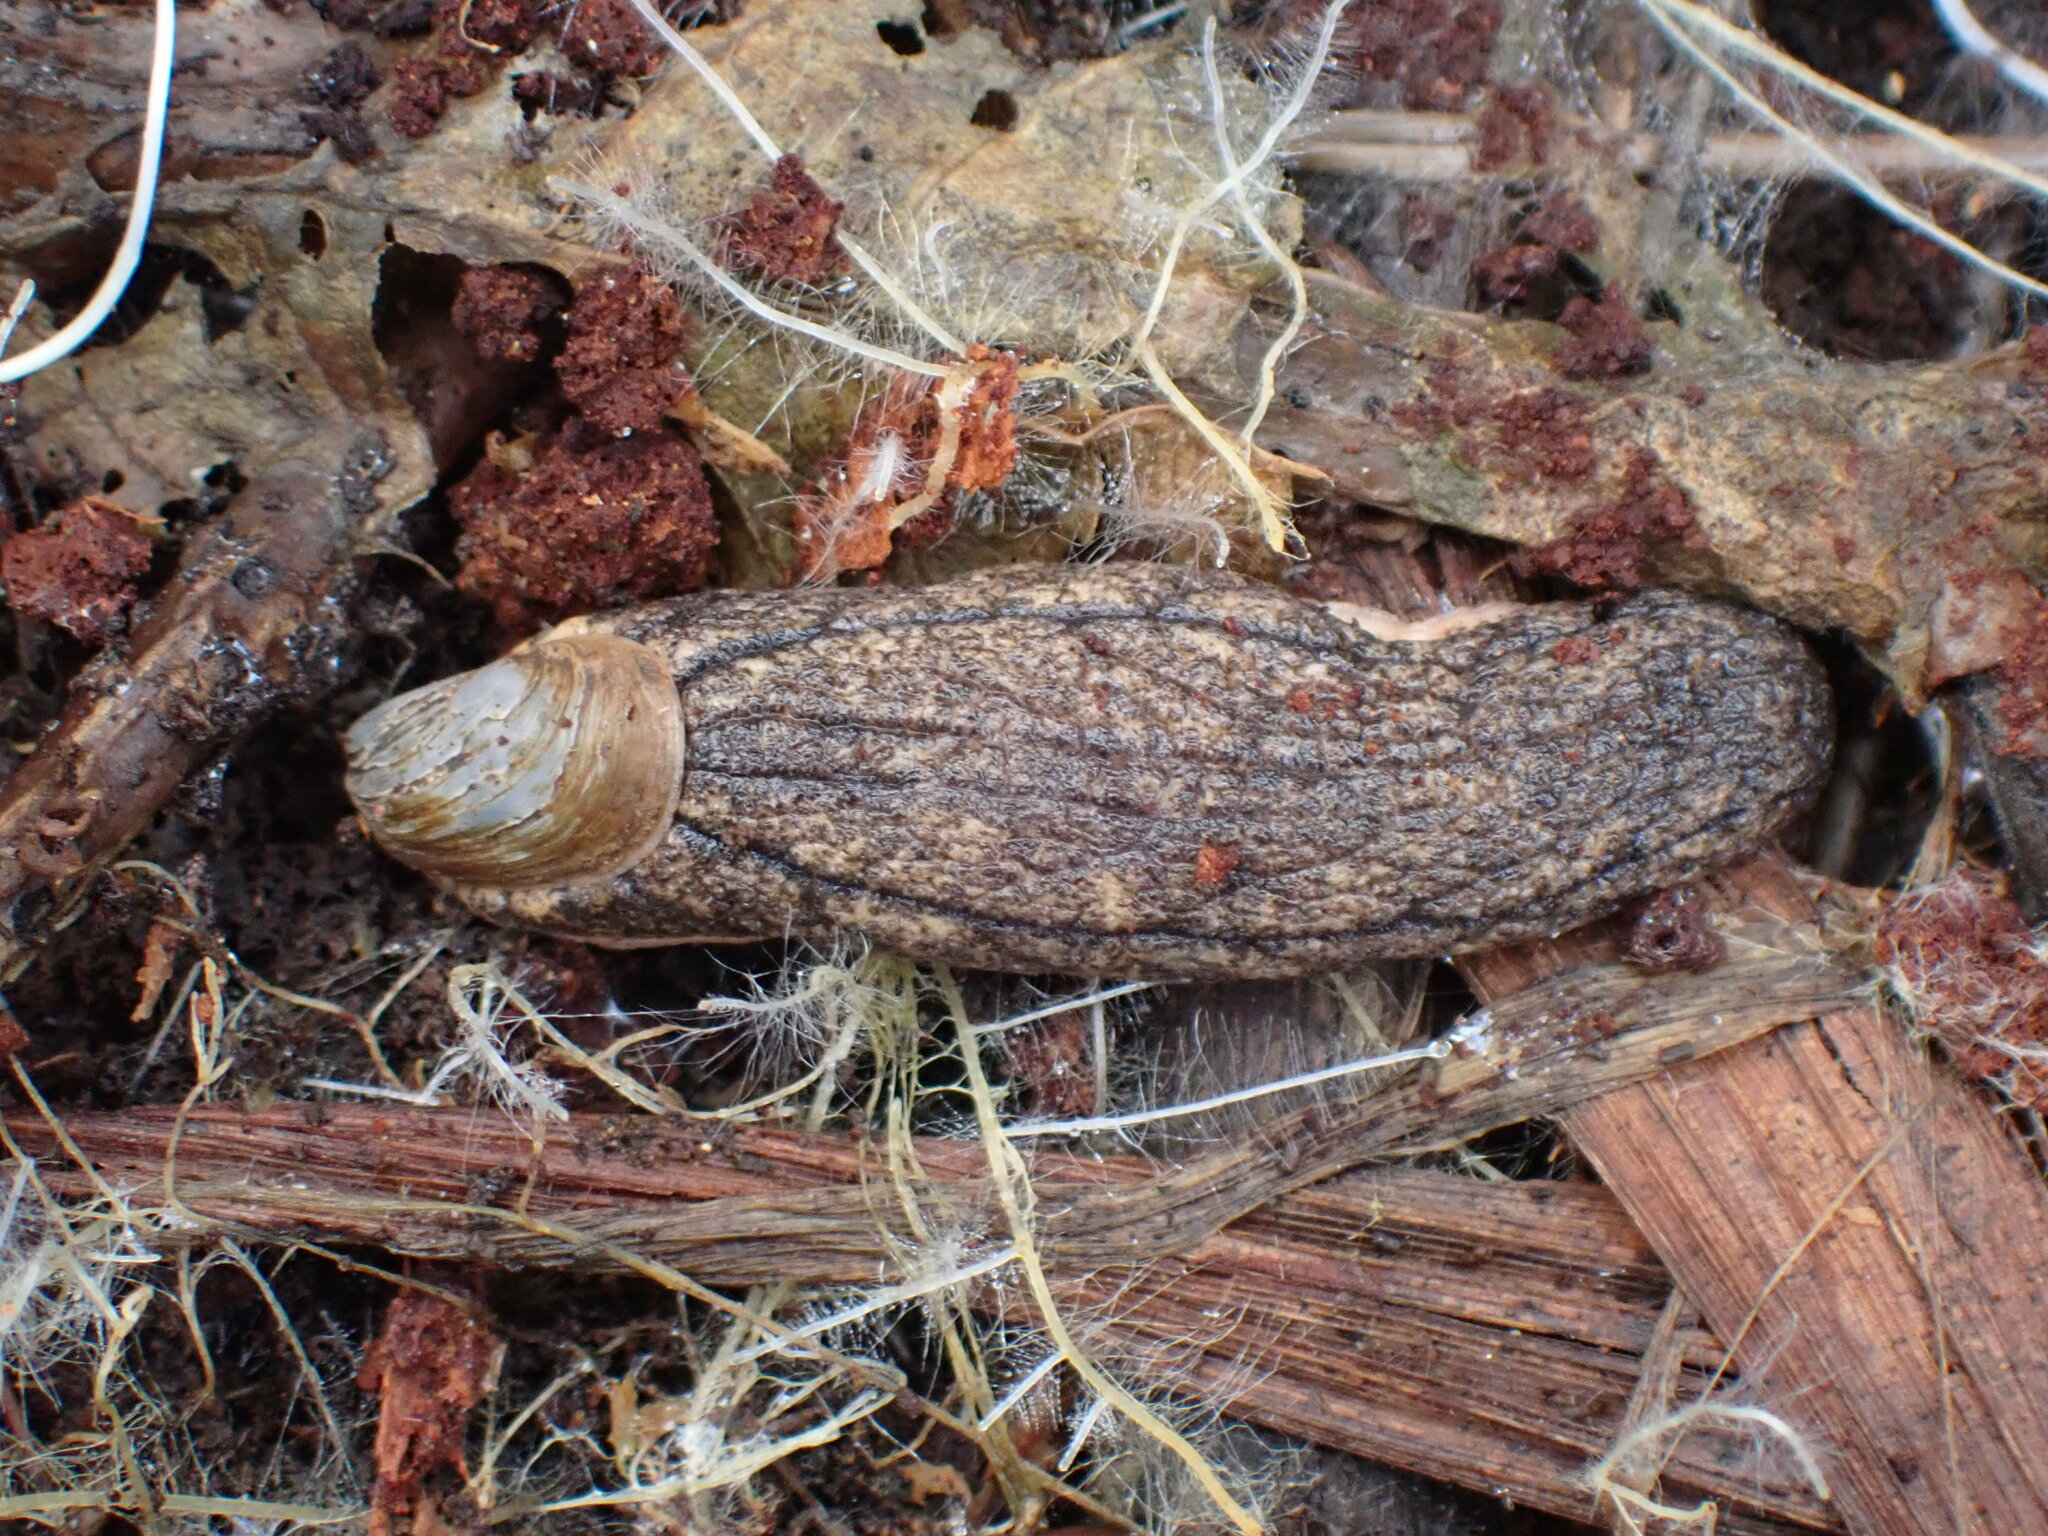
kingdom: Animalia
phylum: Mollusca
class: Gastropoda
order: Stylommatophora
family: Testacellidae
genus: Testacella
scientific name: Testacella maugei
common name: Mauge's slug
